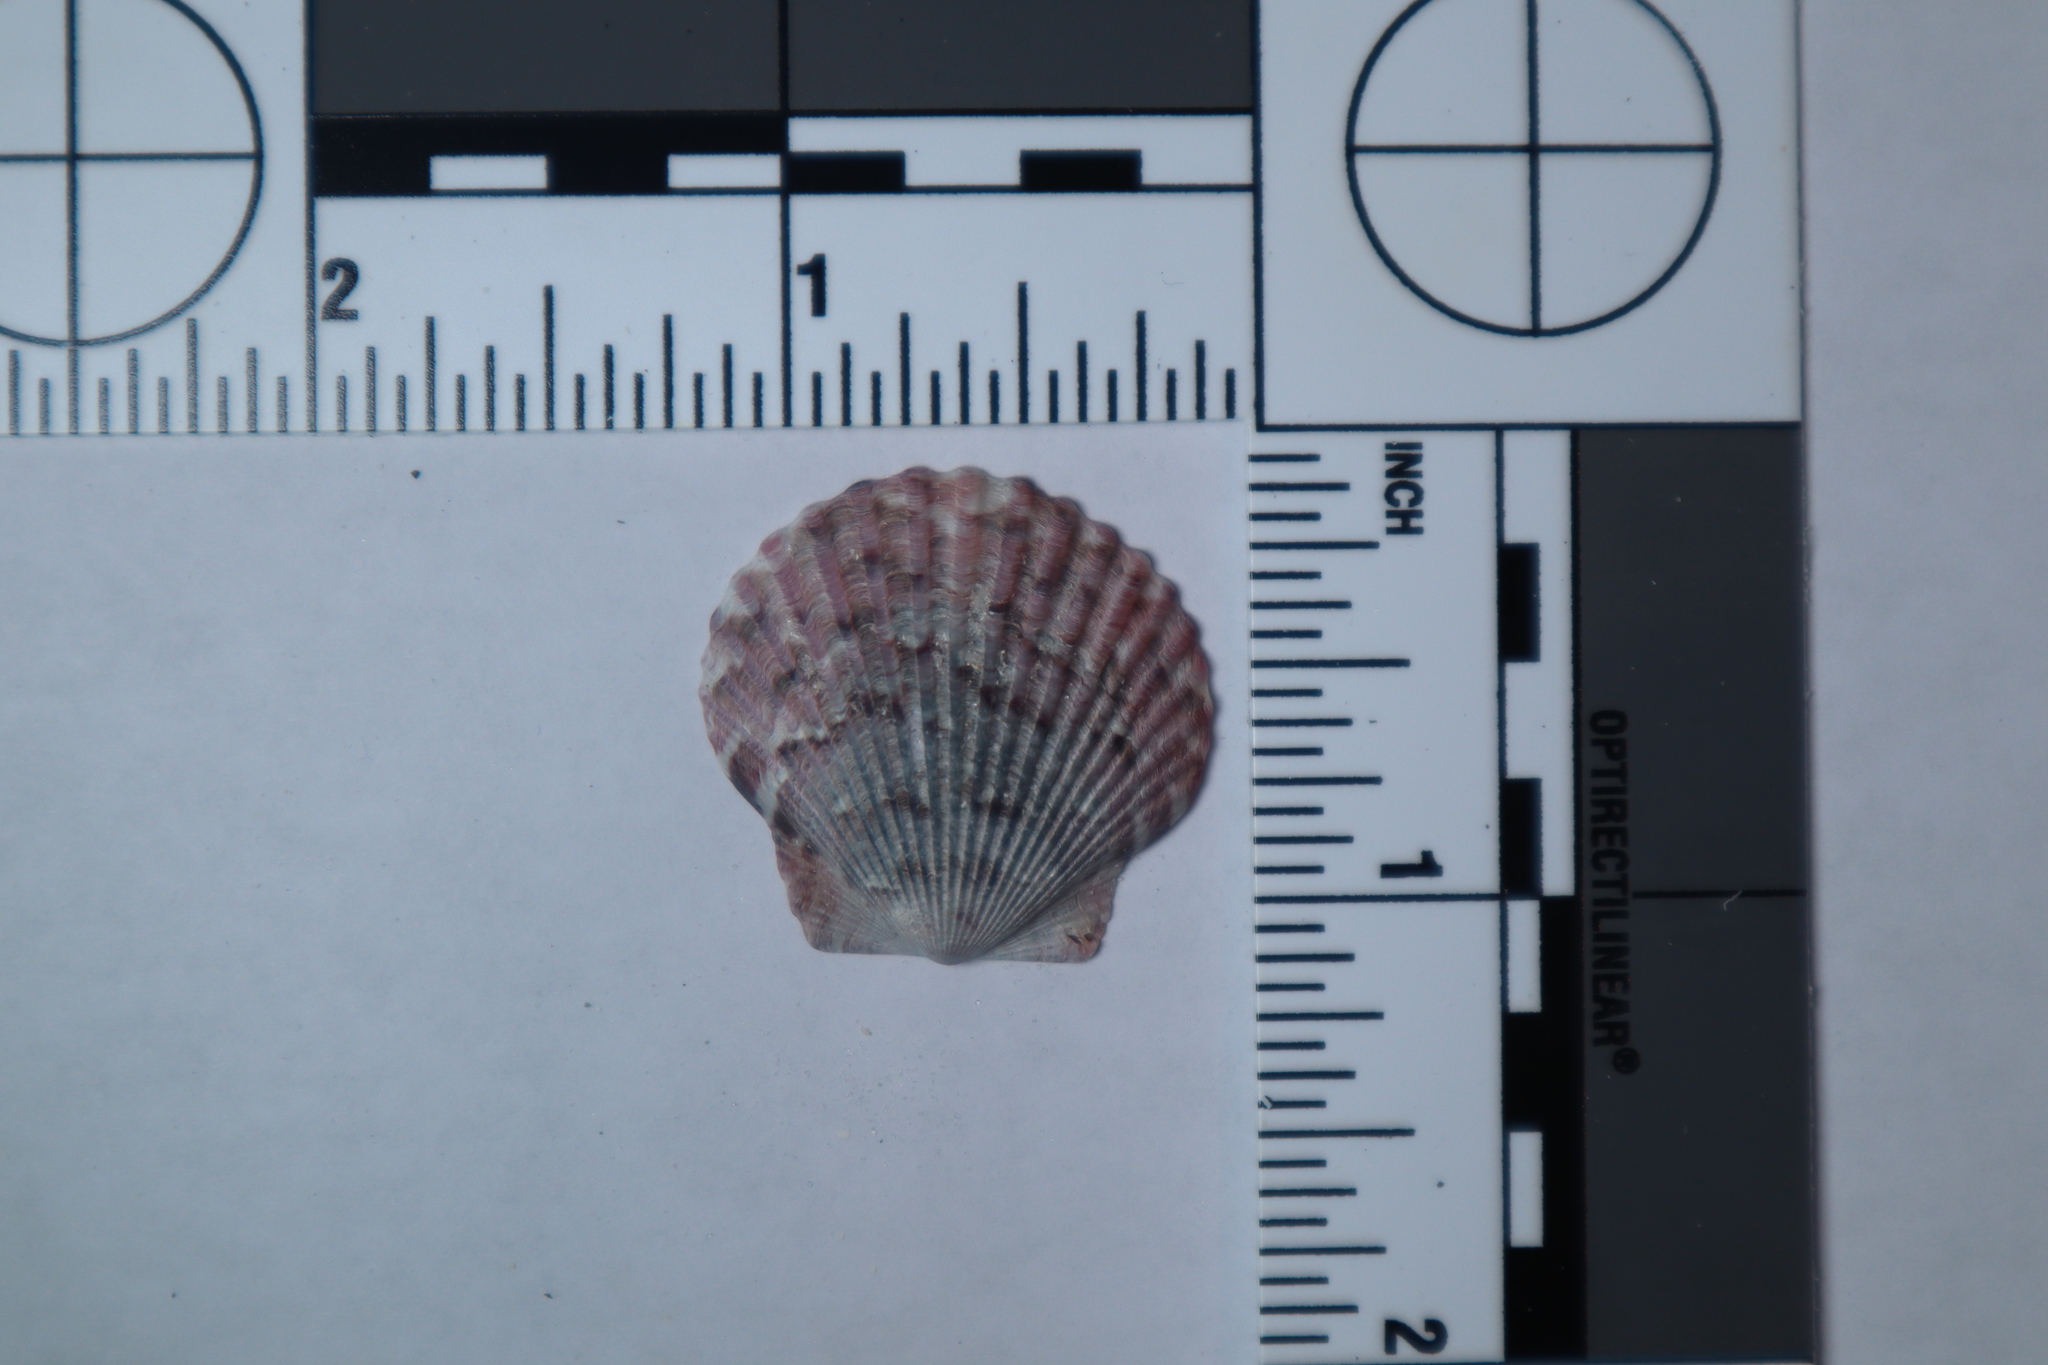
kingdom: Animalia
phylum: Mollusca
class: Bivalvia
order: Pectinida
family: Pectinidae
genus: Argopecten
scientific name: Argopecten gibbus
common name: Atlantic calico scallop
